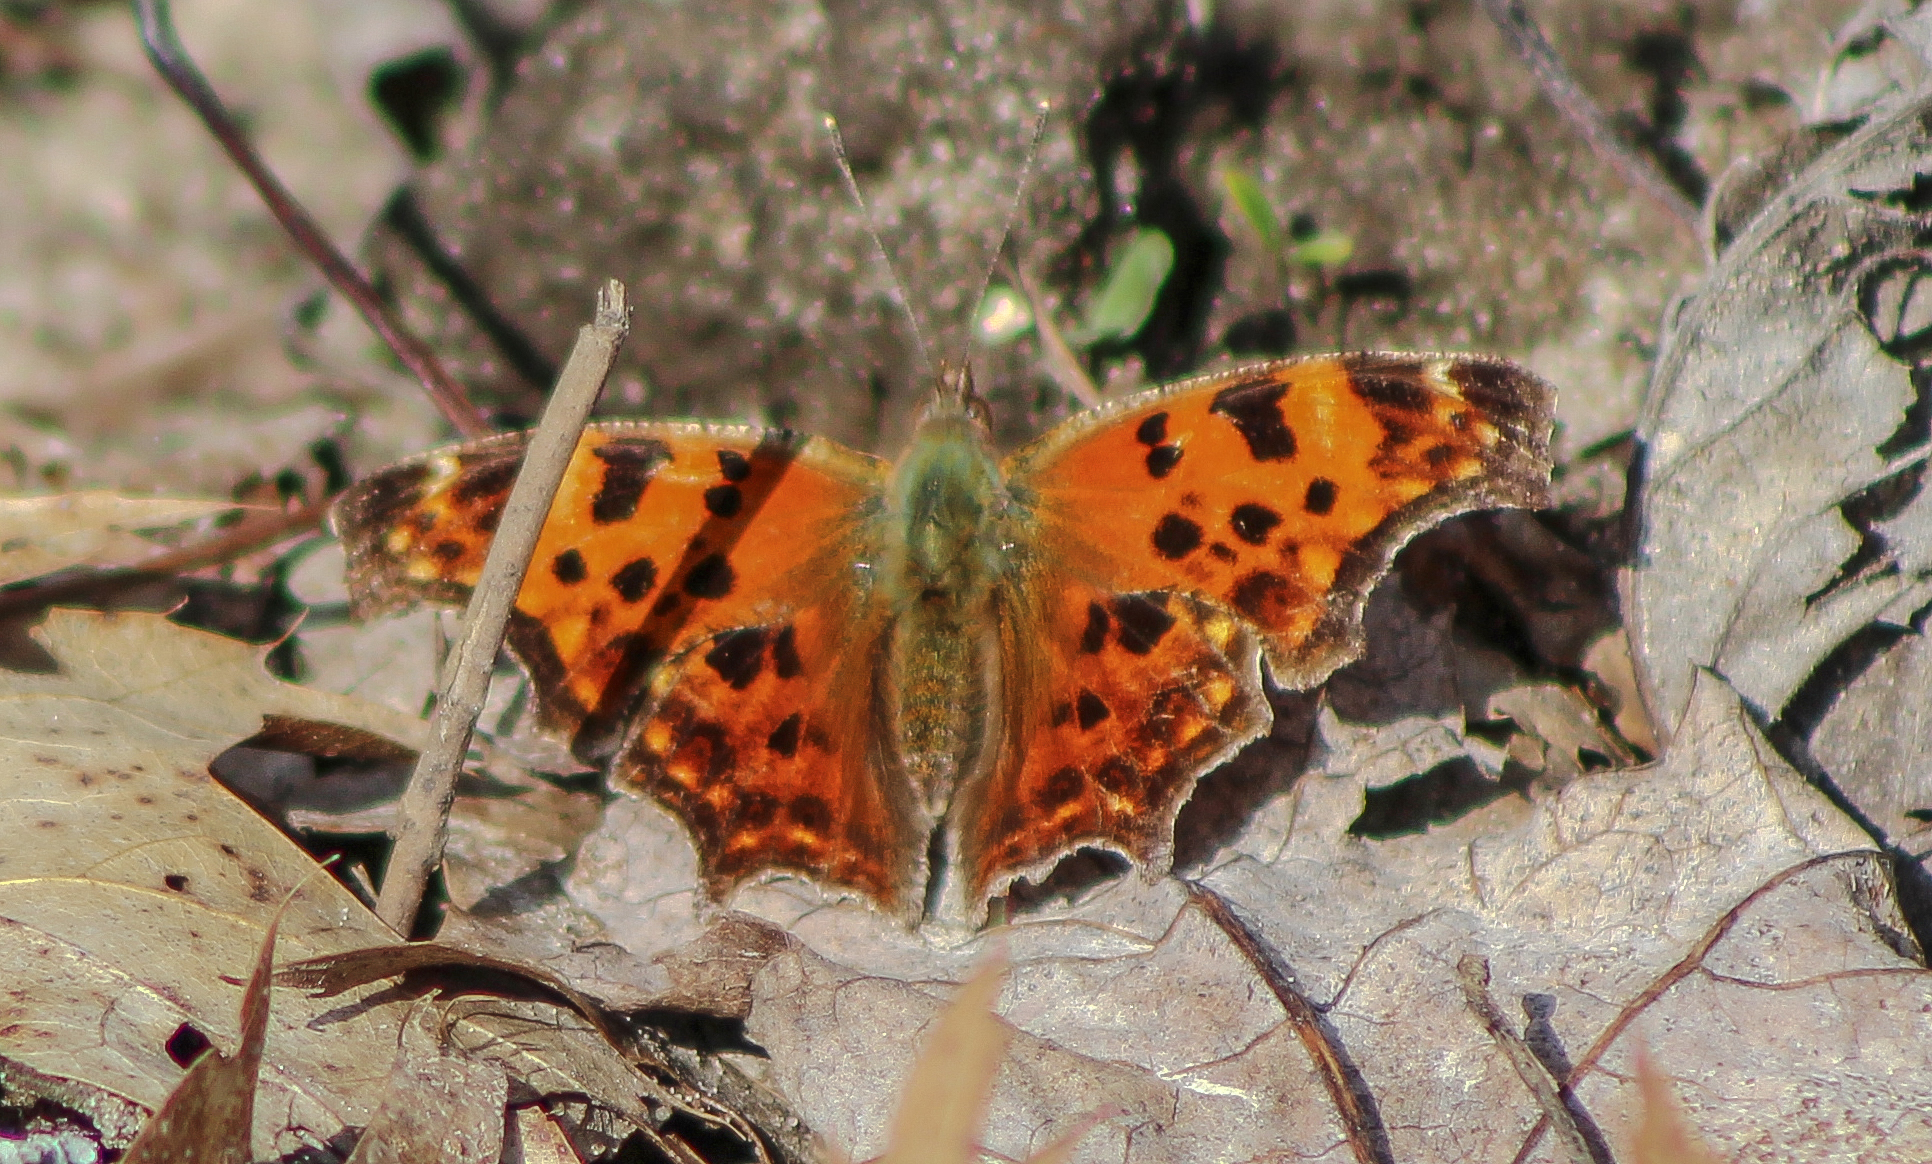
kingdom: Animalia
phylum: Arthropoda
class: Insecta
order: Lepidoptera
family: Nymphalidae
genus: Polygonia
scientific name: Polygonia comma
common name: Eastern comma
